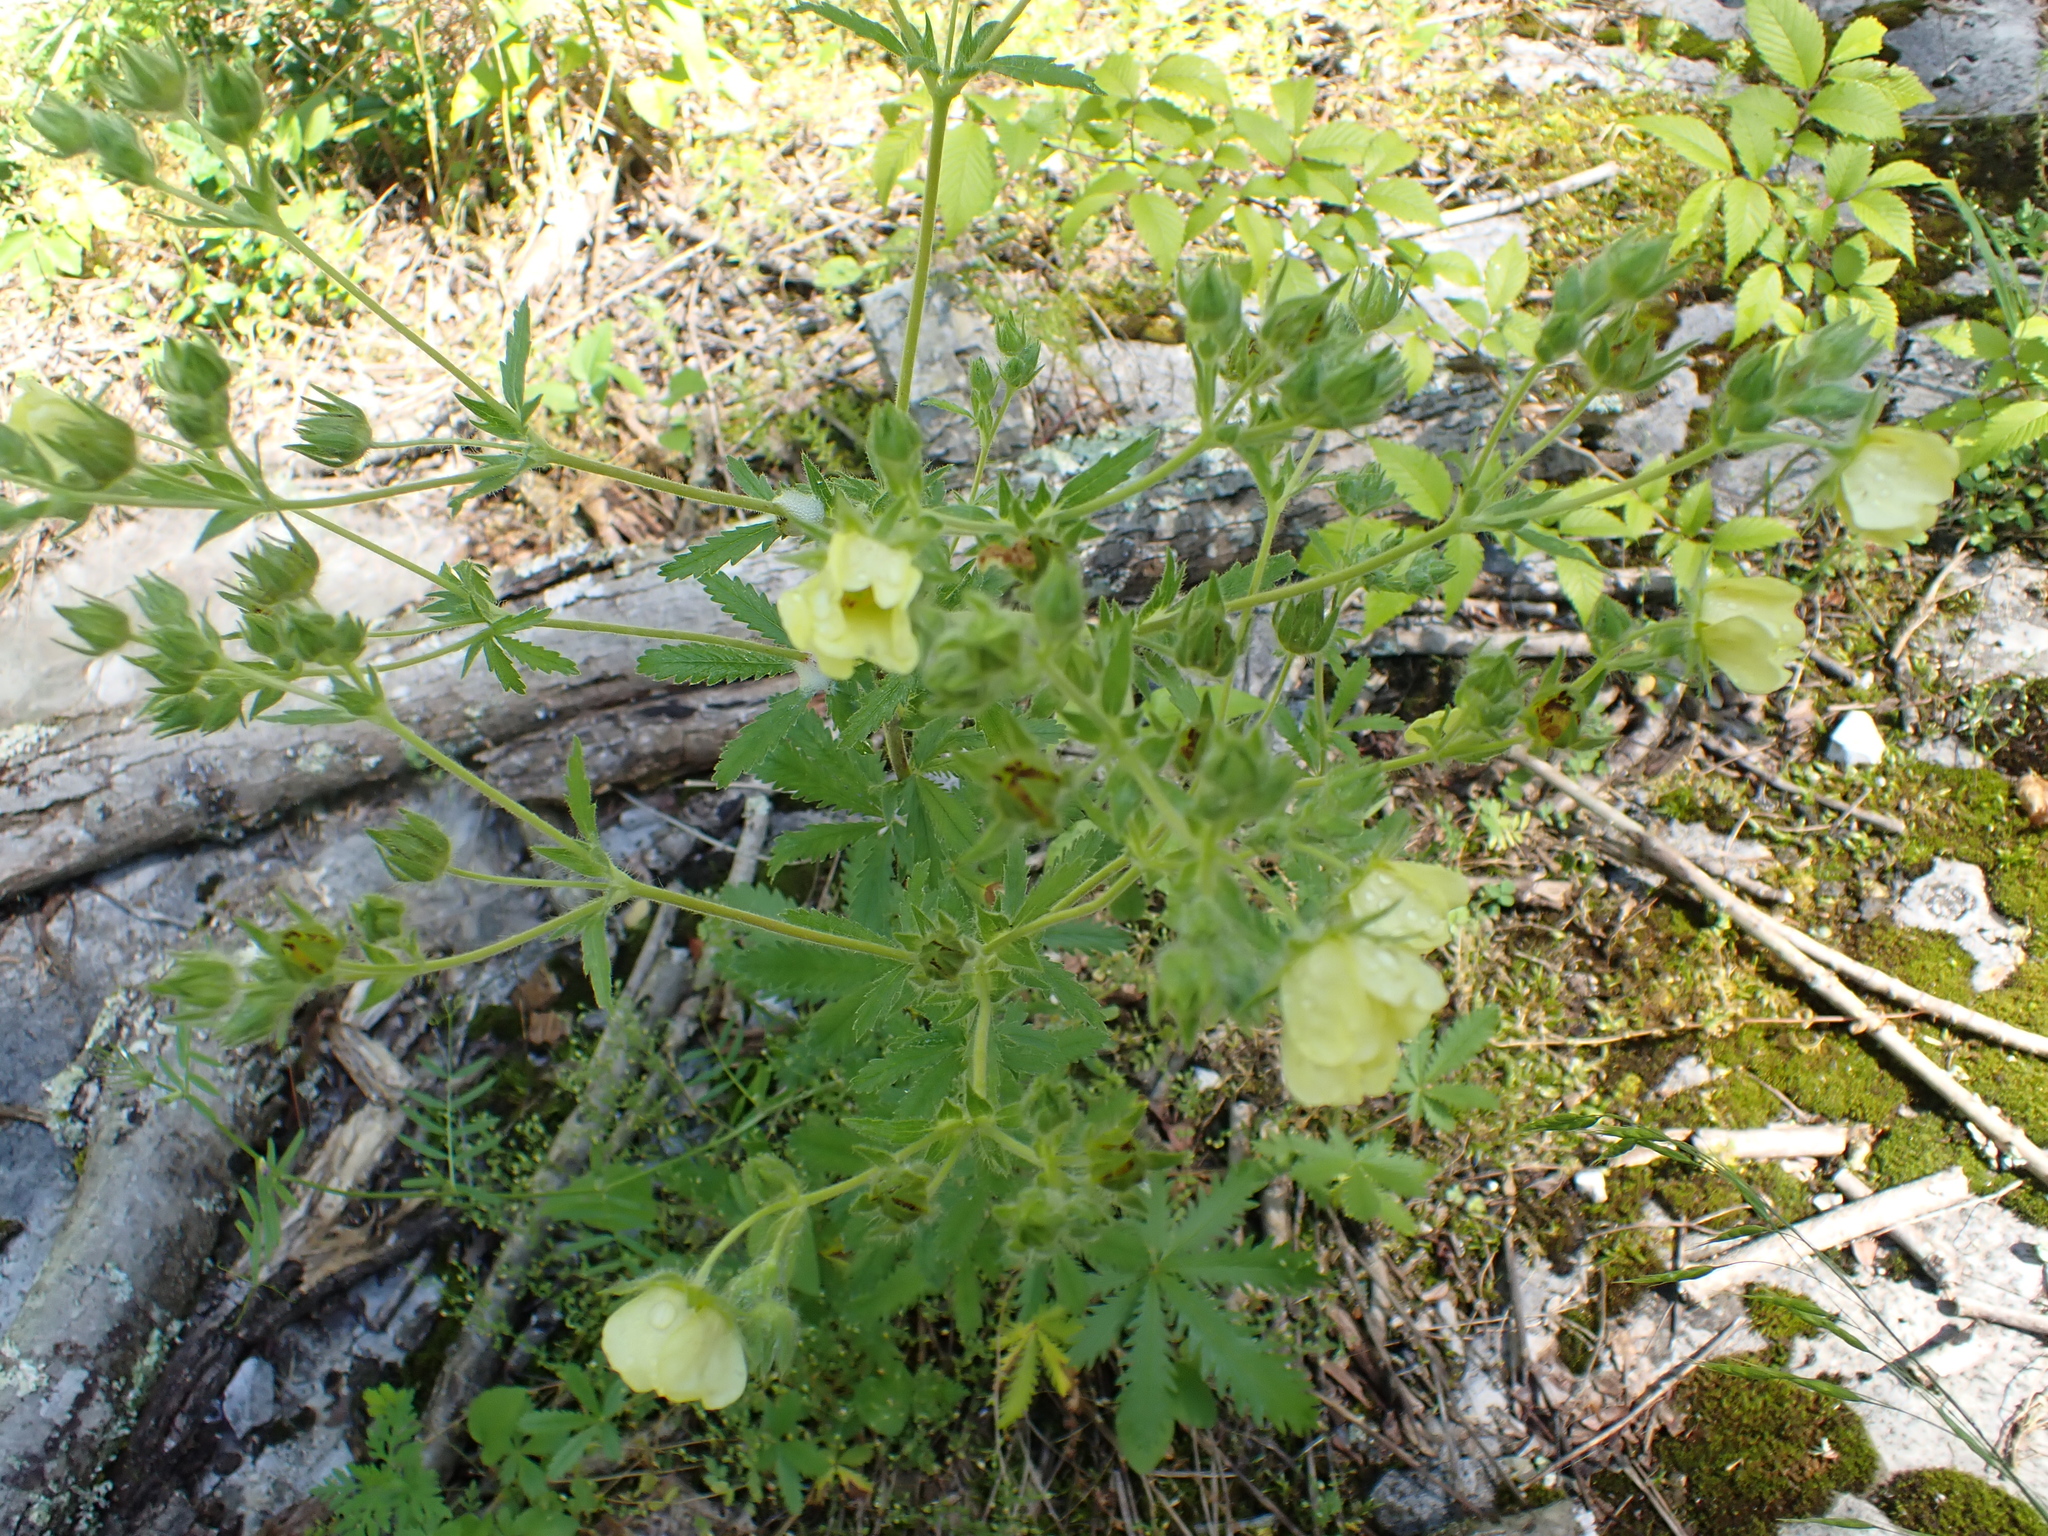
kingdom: Plantae
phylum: Tracheophyta
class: Magnoliopsida
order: Rosales
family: Rosaceae
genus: Potentilla
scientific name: Potentilla recta
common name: Sulphur cinquefoil
